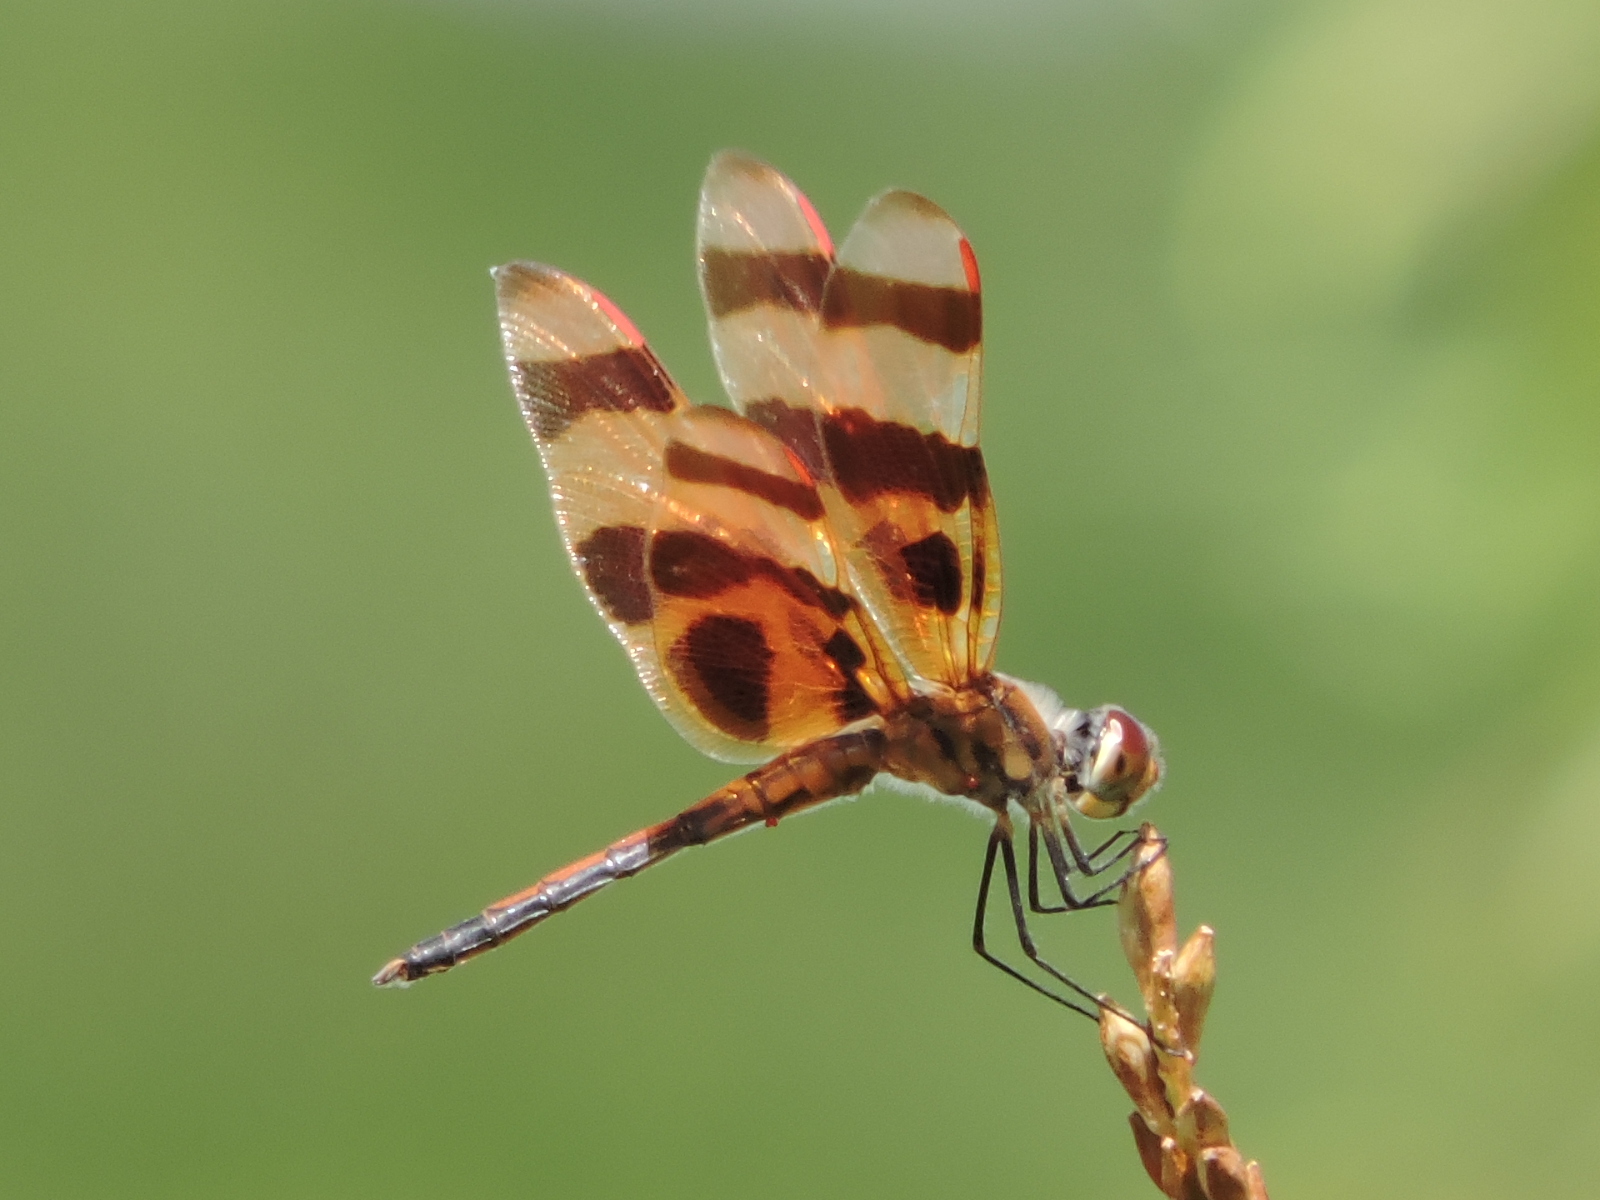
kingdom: Animalia
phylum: Arthropoda
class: Insecta
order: Odonata
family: Libellulidae
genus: Celithemis
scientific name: Celithemis eponina
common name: Halloween pennant
